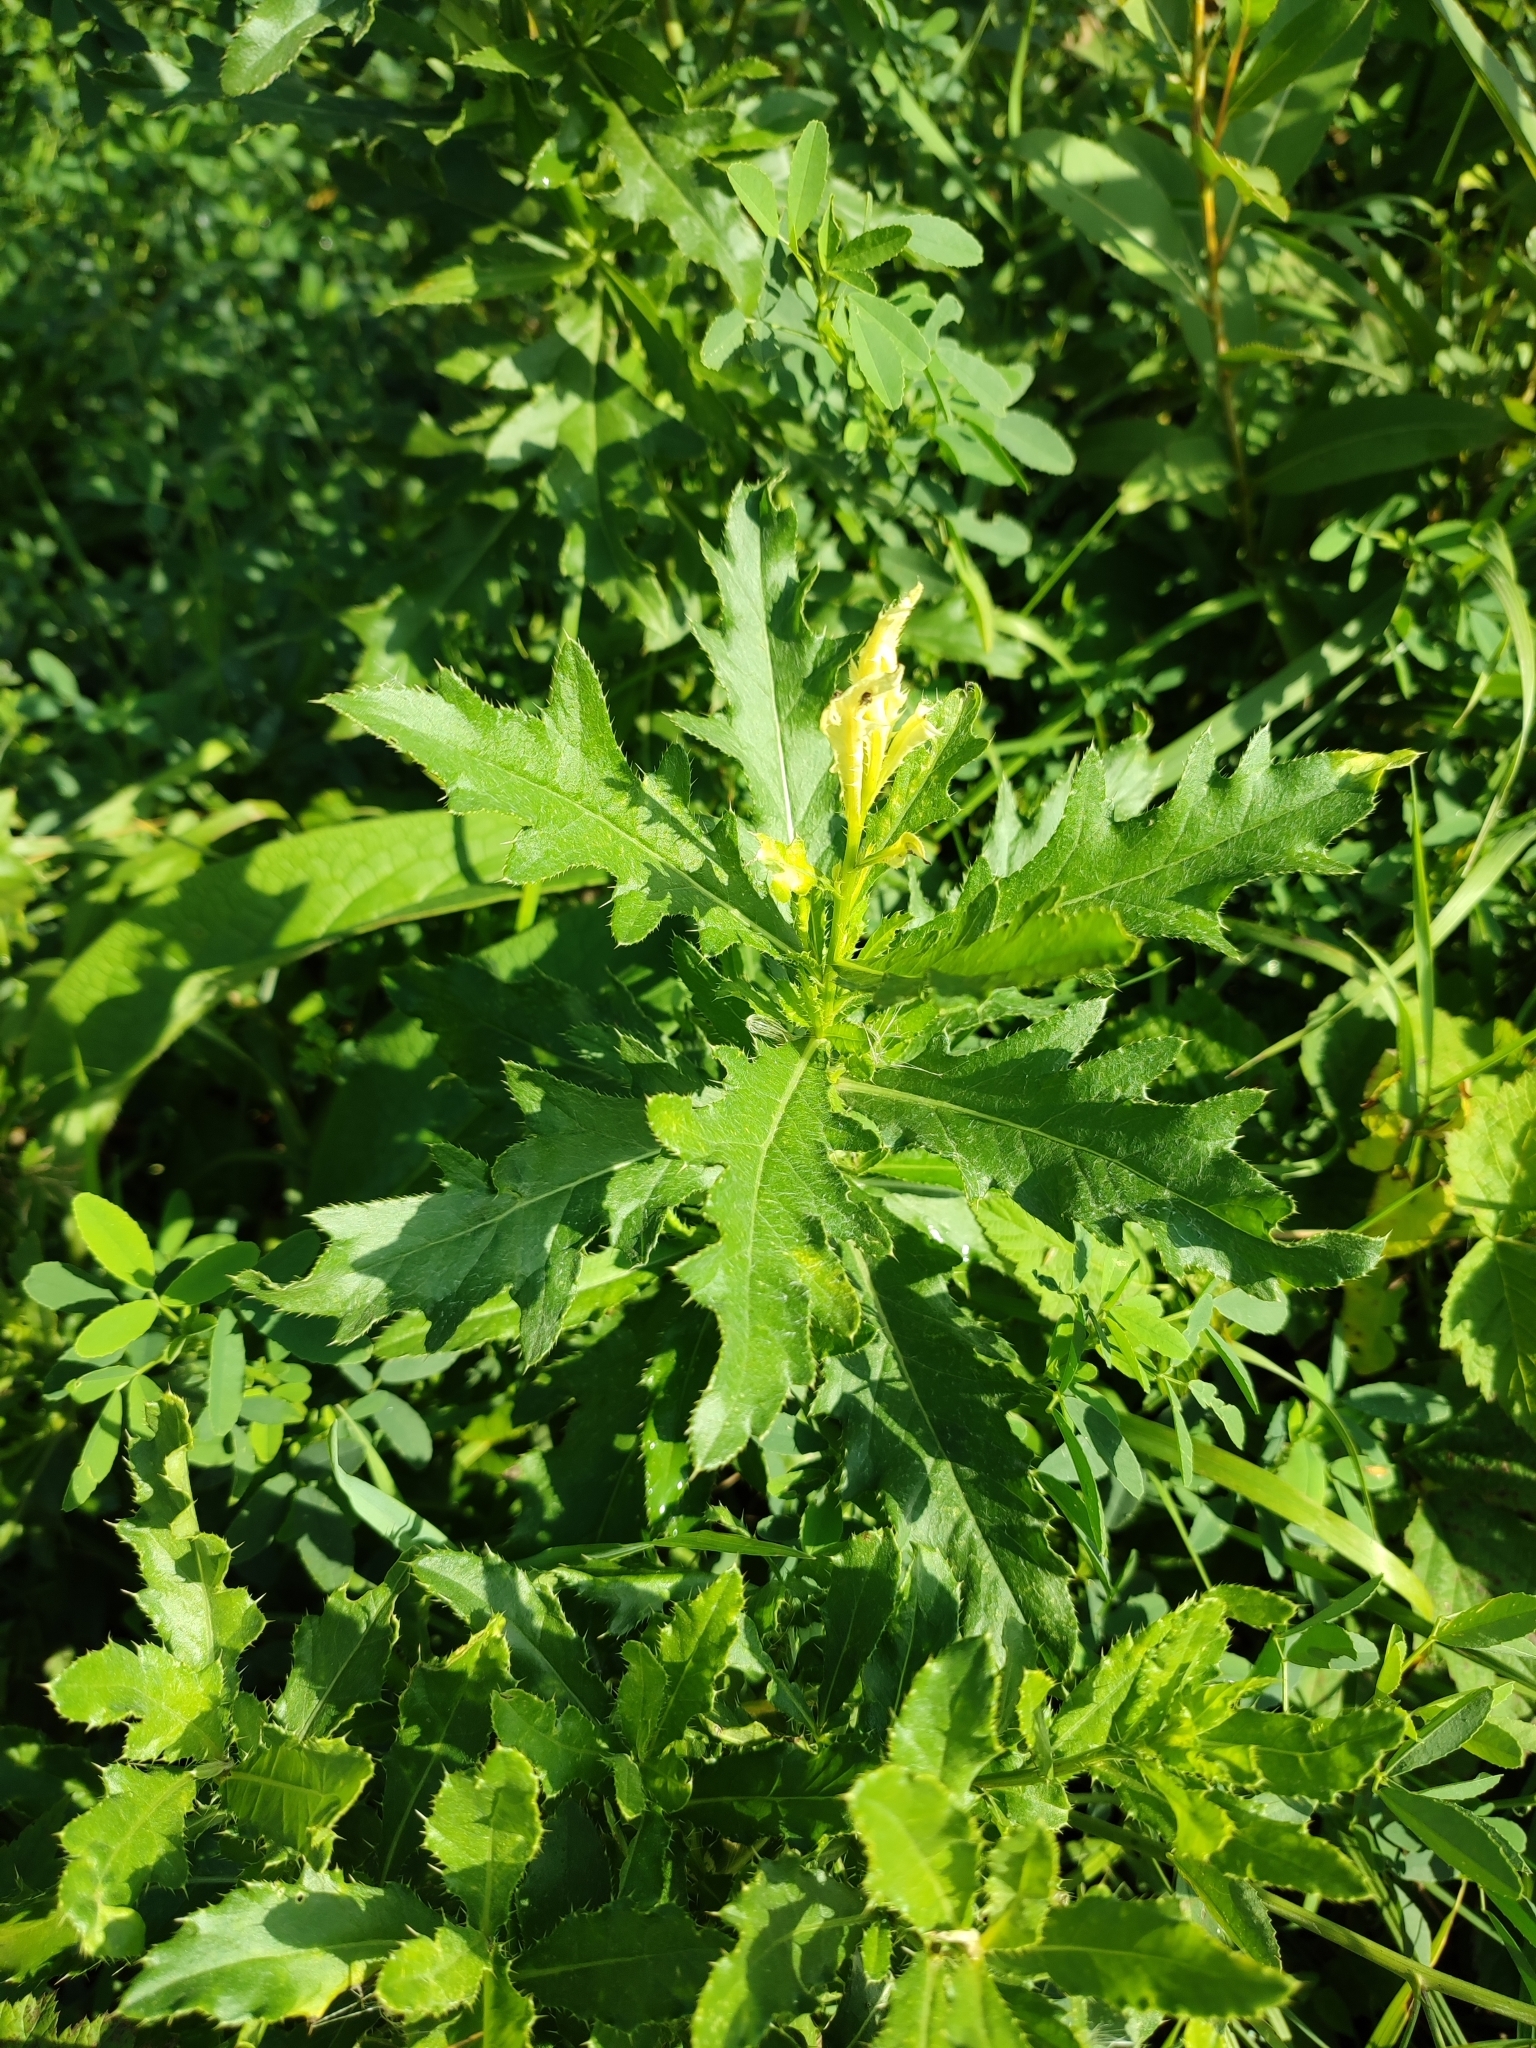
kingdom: Plantae
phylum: Tracheophyta
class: Magnoliopsida
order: Asterales
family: Asteraceae
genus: Cirsium
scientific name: Cirsium arvense
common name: Creeping thistle
